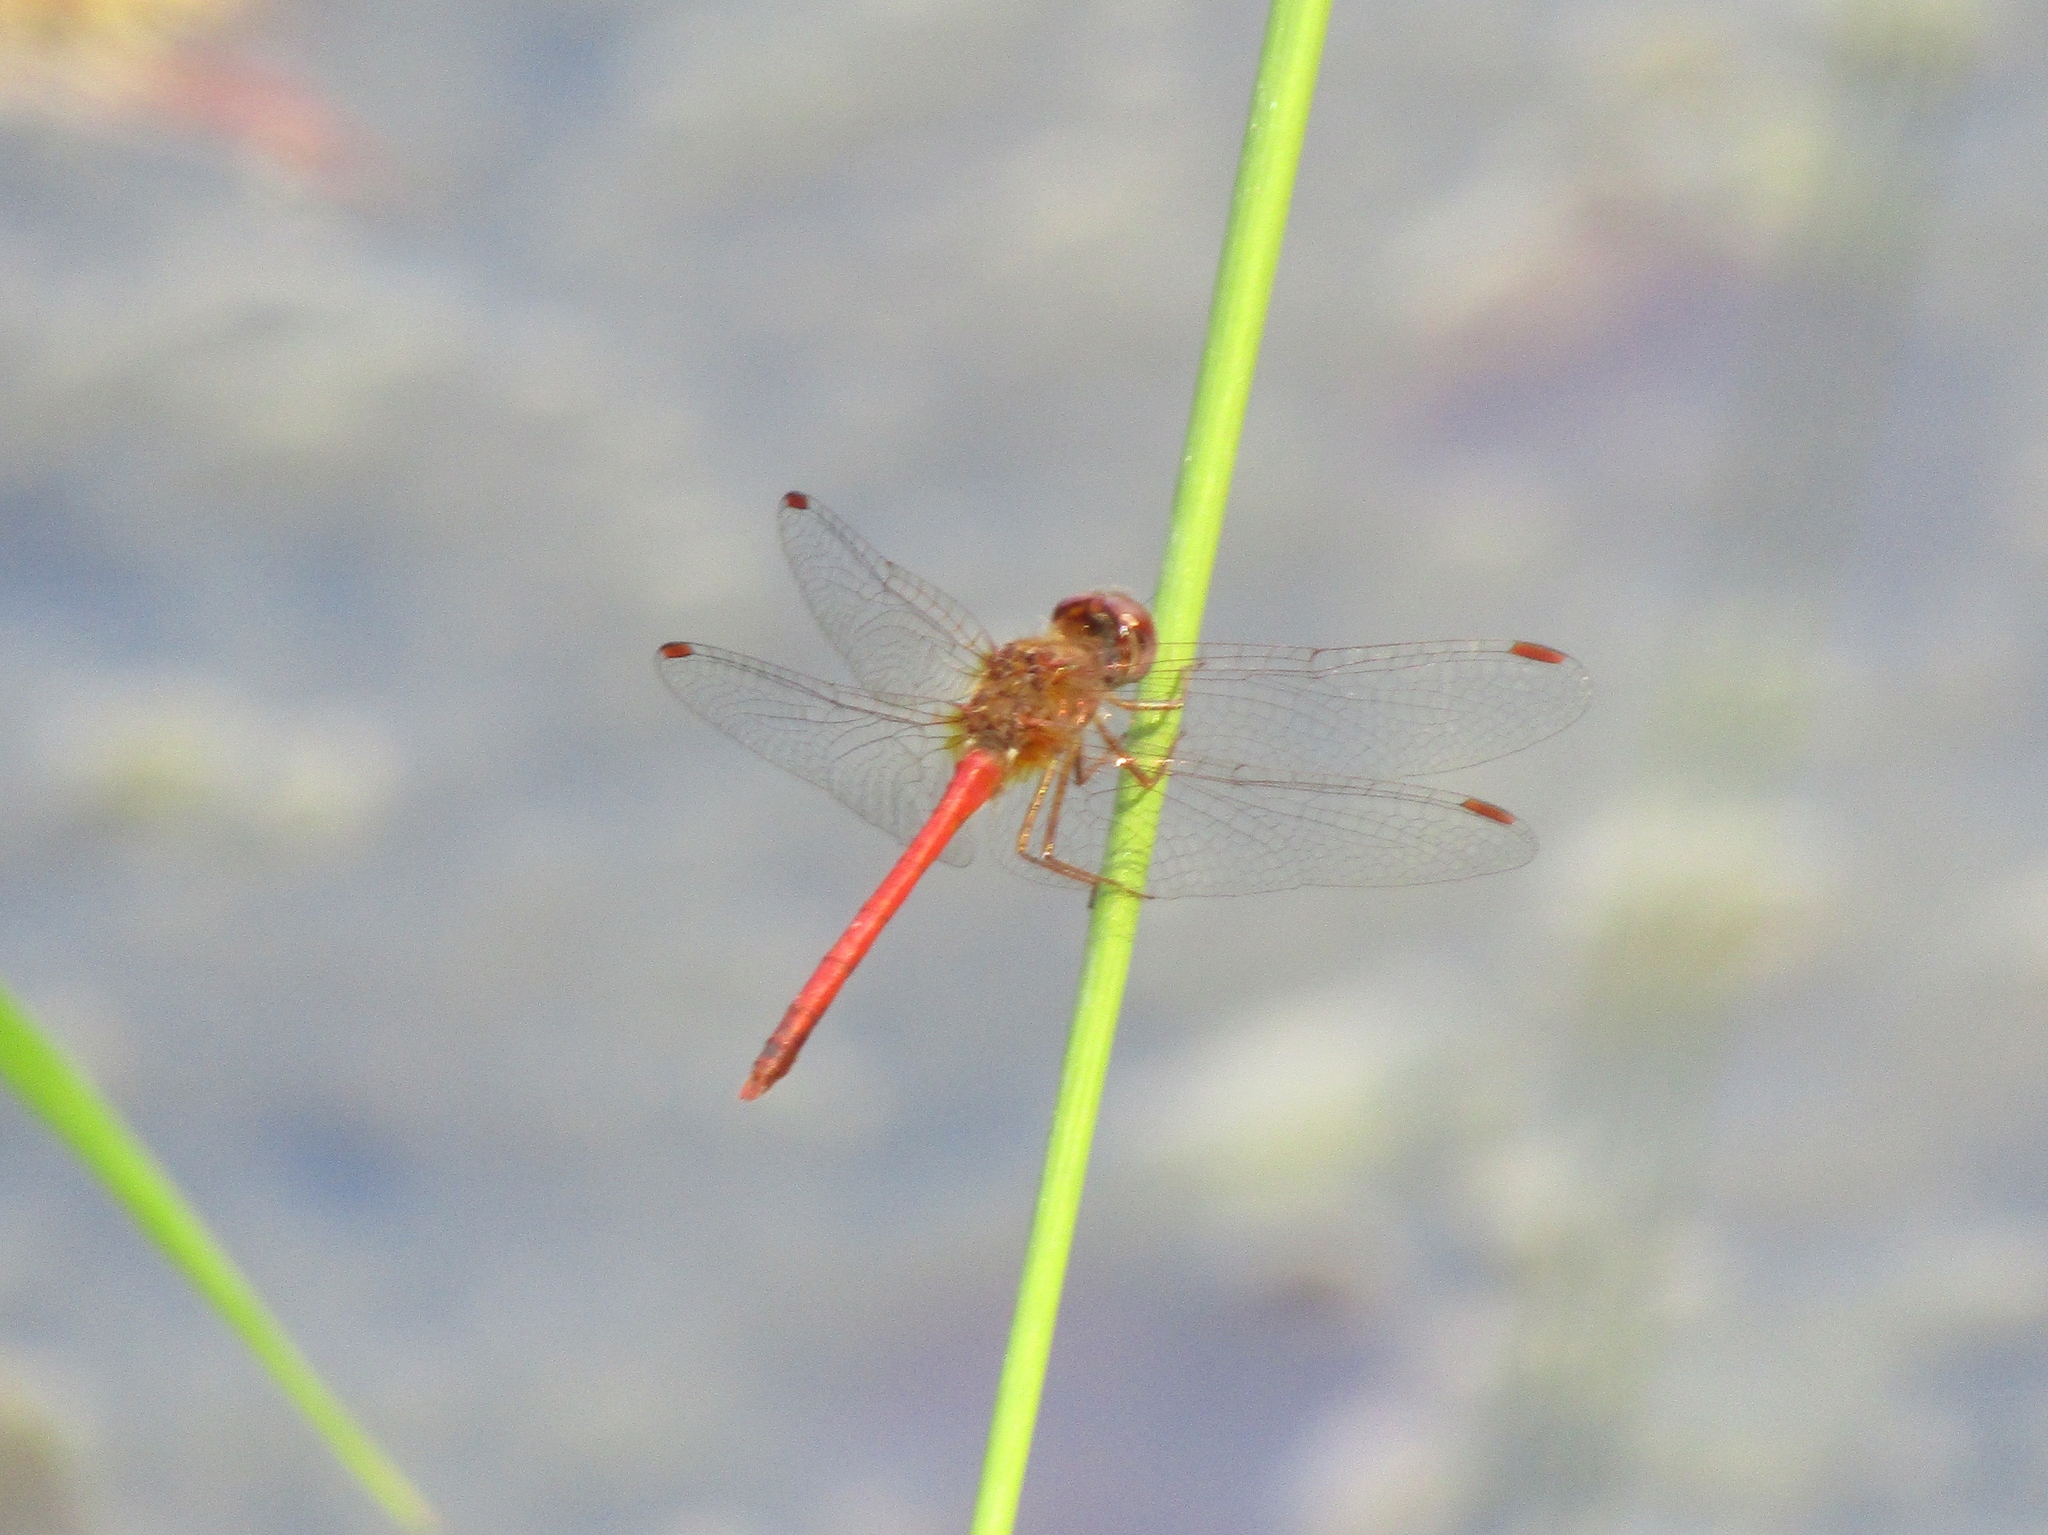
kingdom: Animalia
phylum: Arthropoda
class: Insecta
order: Odonata
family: Libellulidae
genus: Sympetrum
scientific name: Sympetrum vicinum
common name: Autumn meadowhawk
